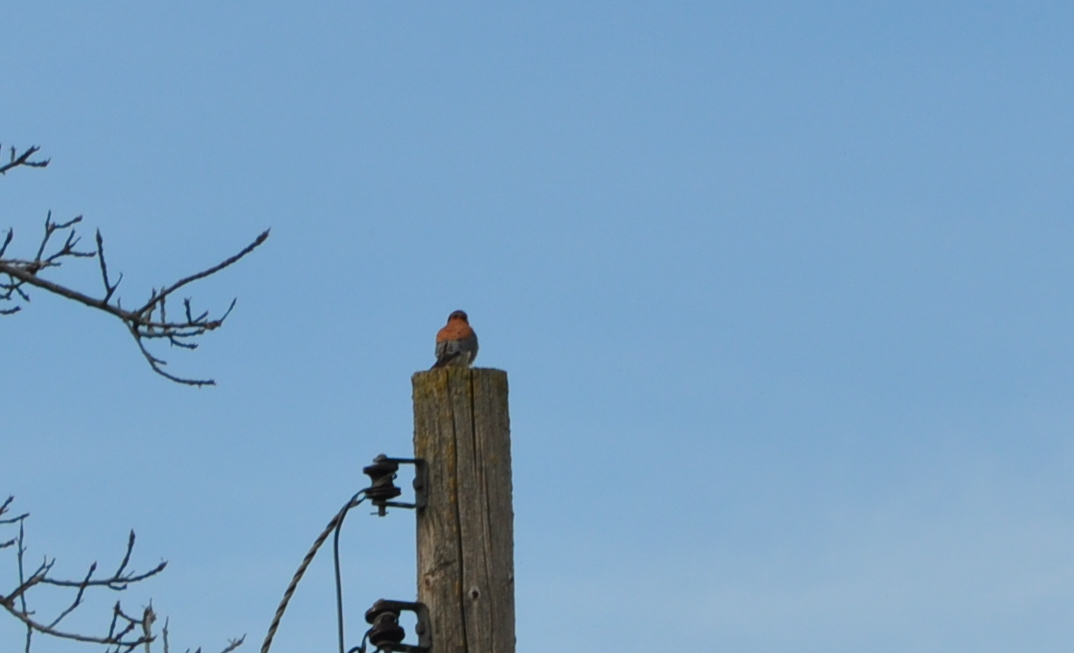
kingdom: Animalia
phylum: Chordata
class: Aves
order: Falconiformes
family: Falconidae
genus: Falco
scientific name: Falco sparverius
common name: American kestrel
